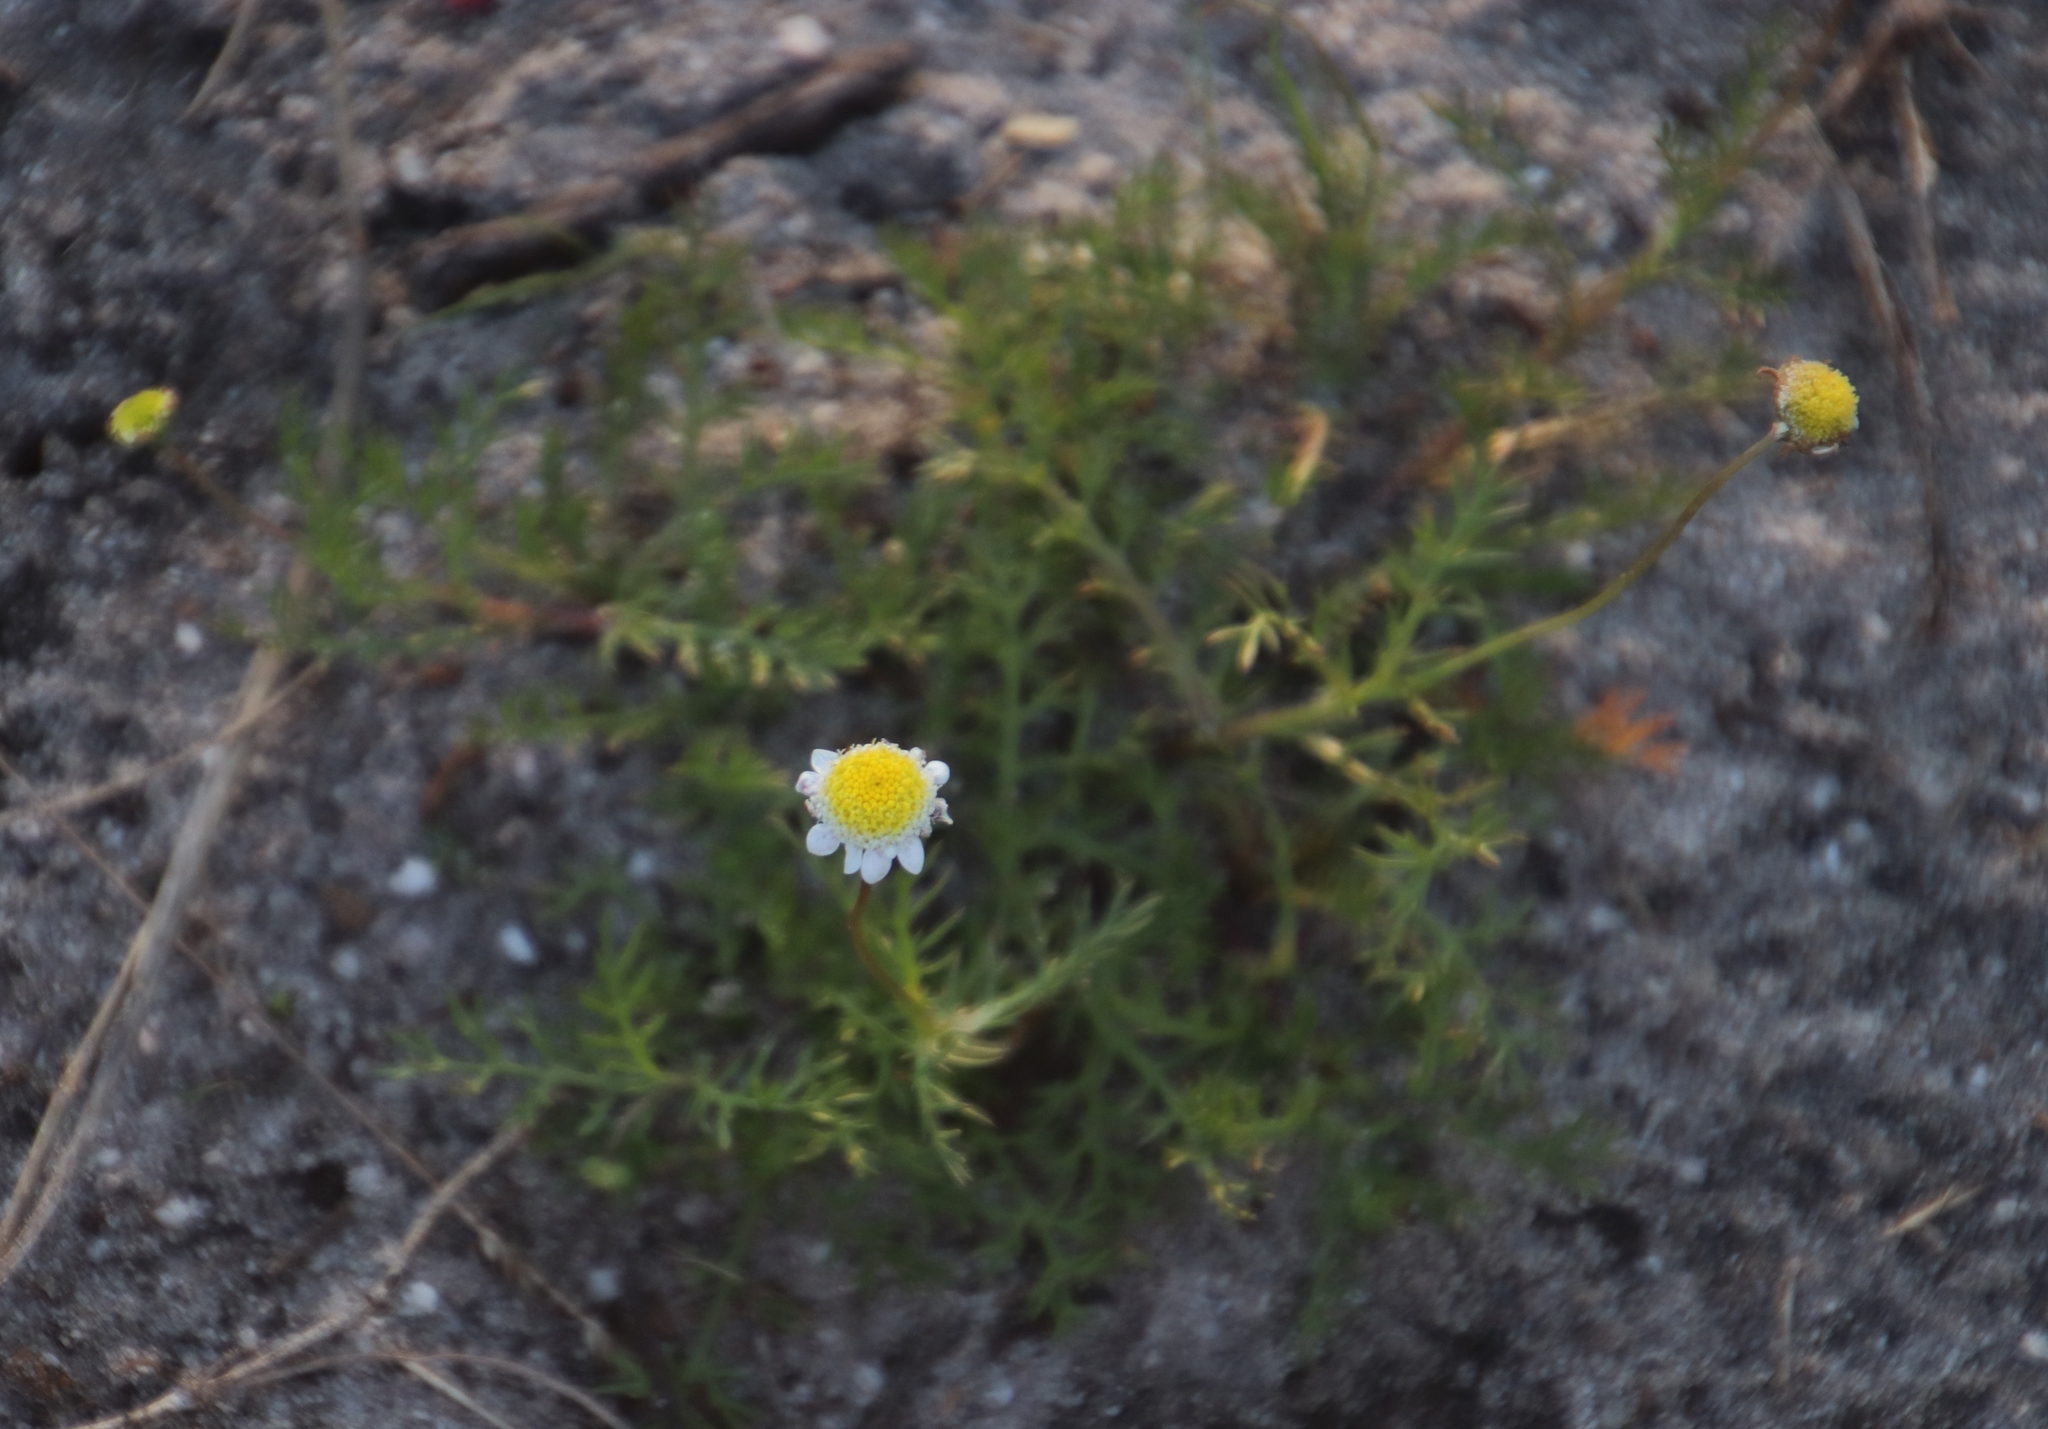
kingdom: Plantae
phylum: Tracheophyta
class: Magnoliopsida
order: Asterales
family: Asteraceae
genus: Cotula
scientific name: Cotula turbinata
